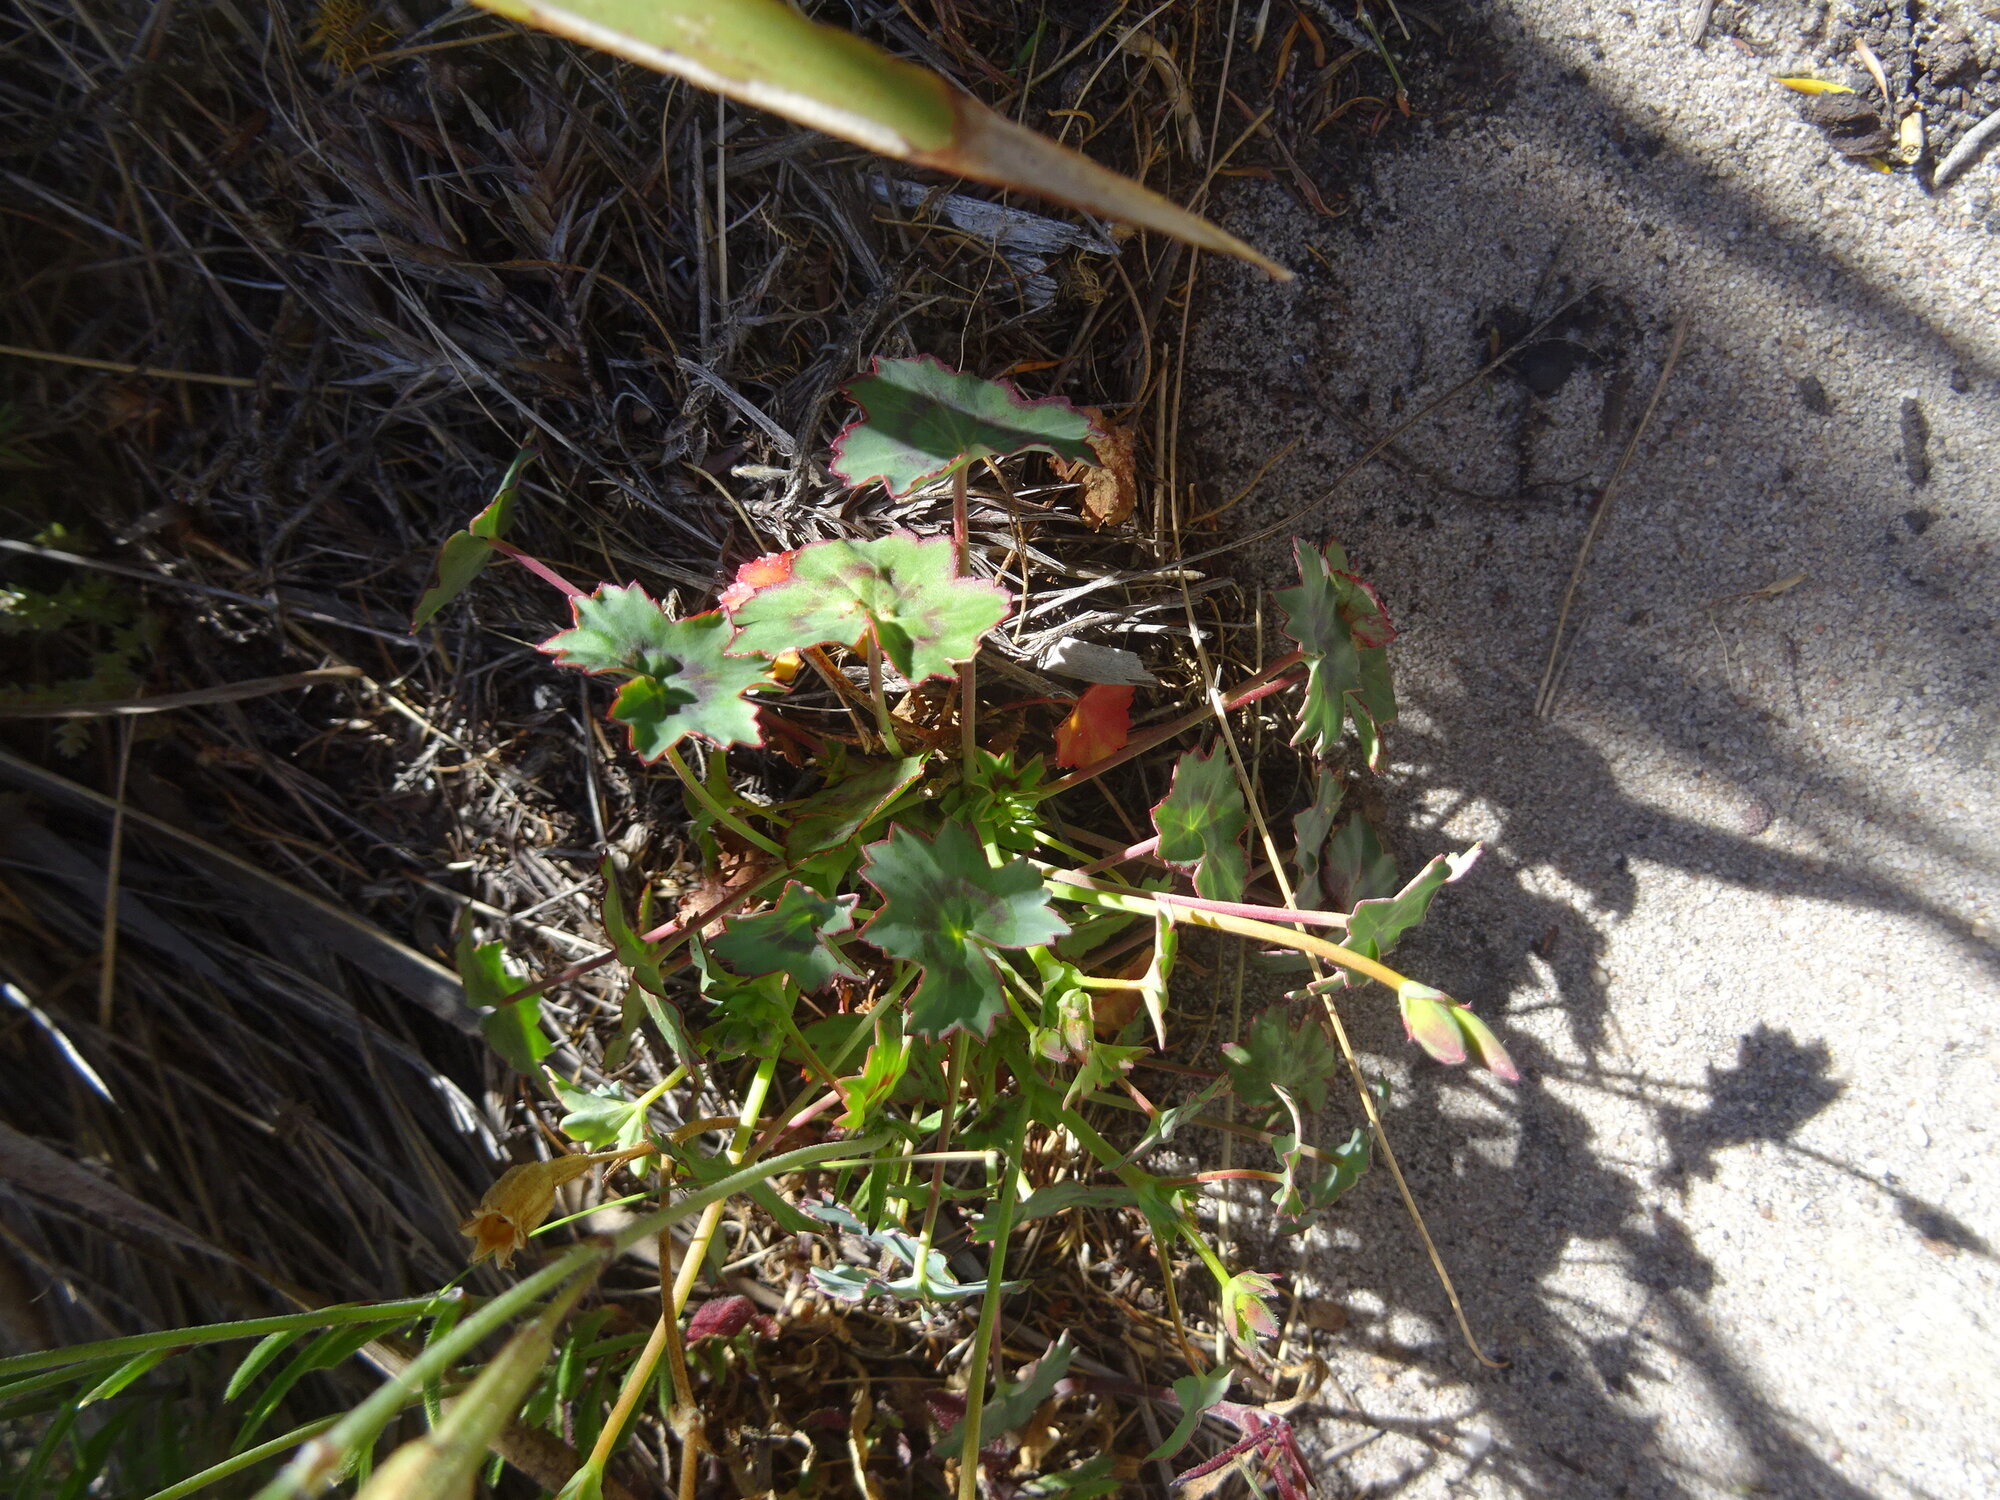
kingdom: Plantae
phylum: Tracheophyta
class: Magnoliopsida
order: Geraniales
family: Geraniaceae
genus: Pelargonium
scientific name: Pelargonium tabulare
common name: Table mountain pelargonium
